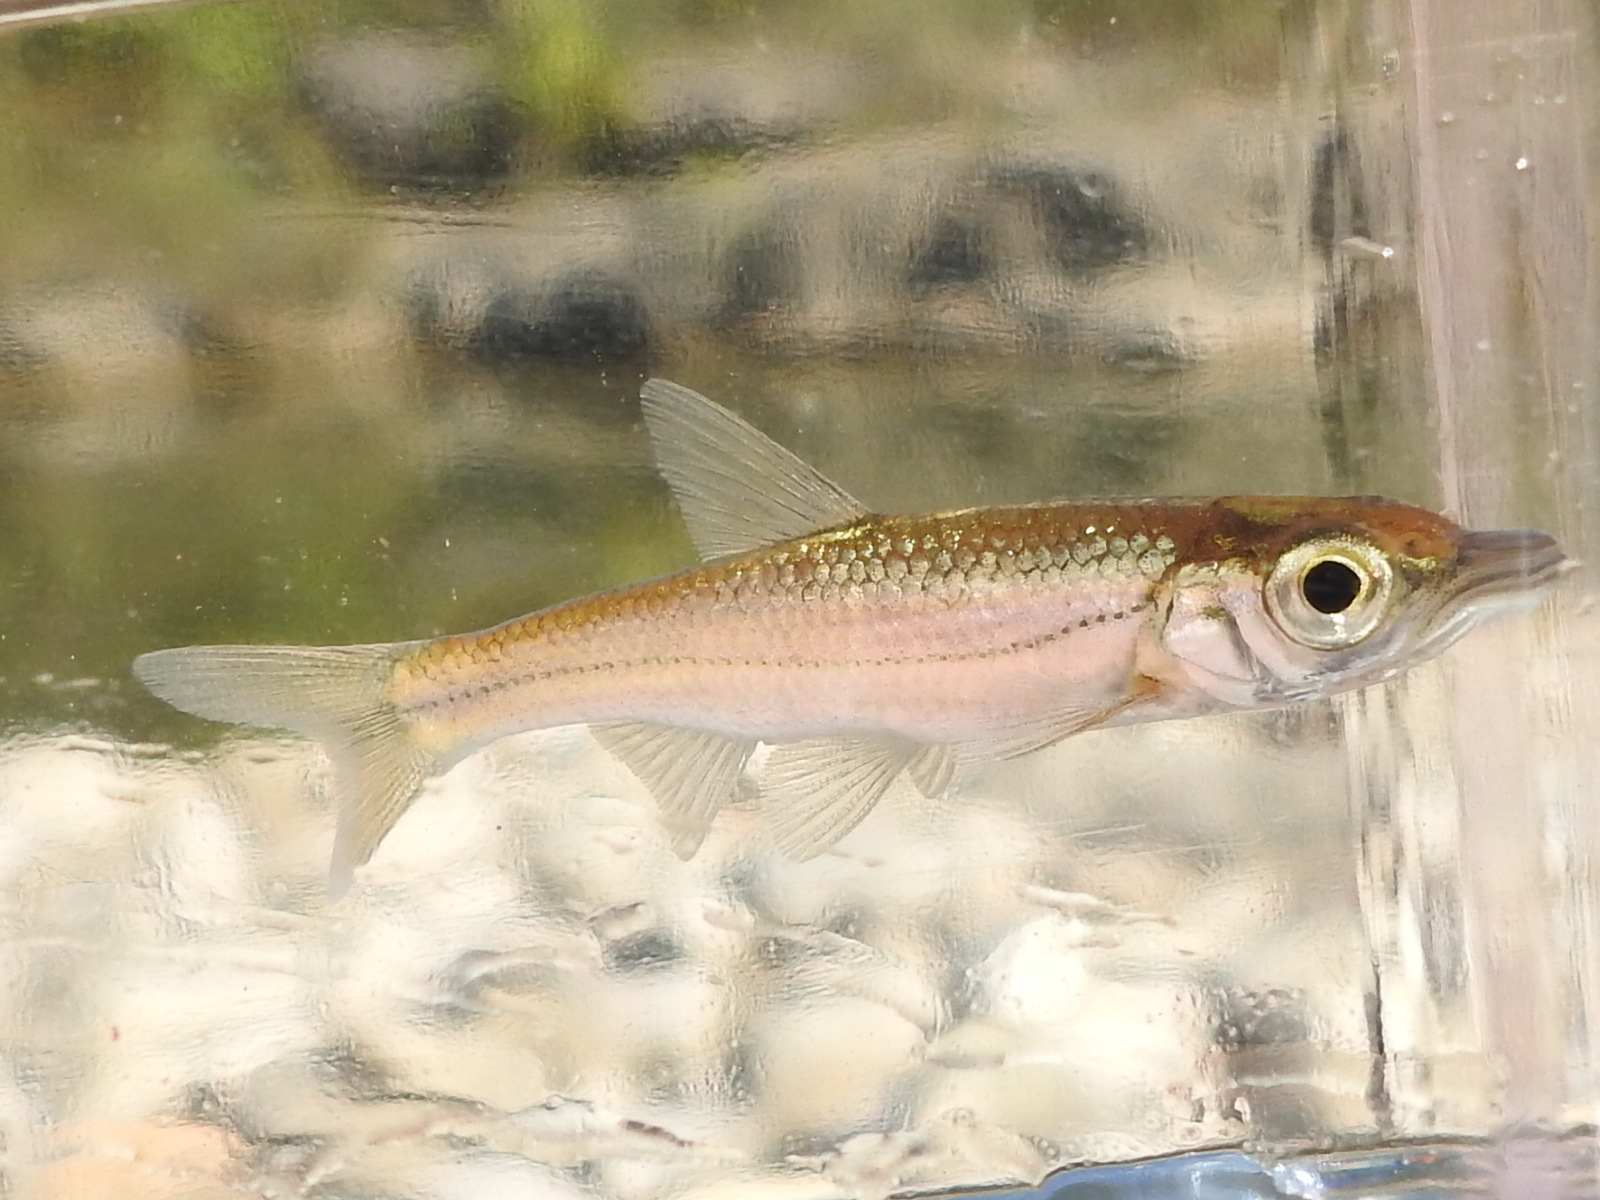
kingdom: Animalia
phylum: Chordata
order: Cypriniformes
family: Cyprinidae
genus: Luxilus
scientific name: Luxilus pilsbryi
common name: Duskystripe shiner
